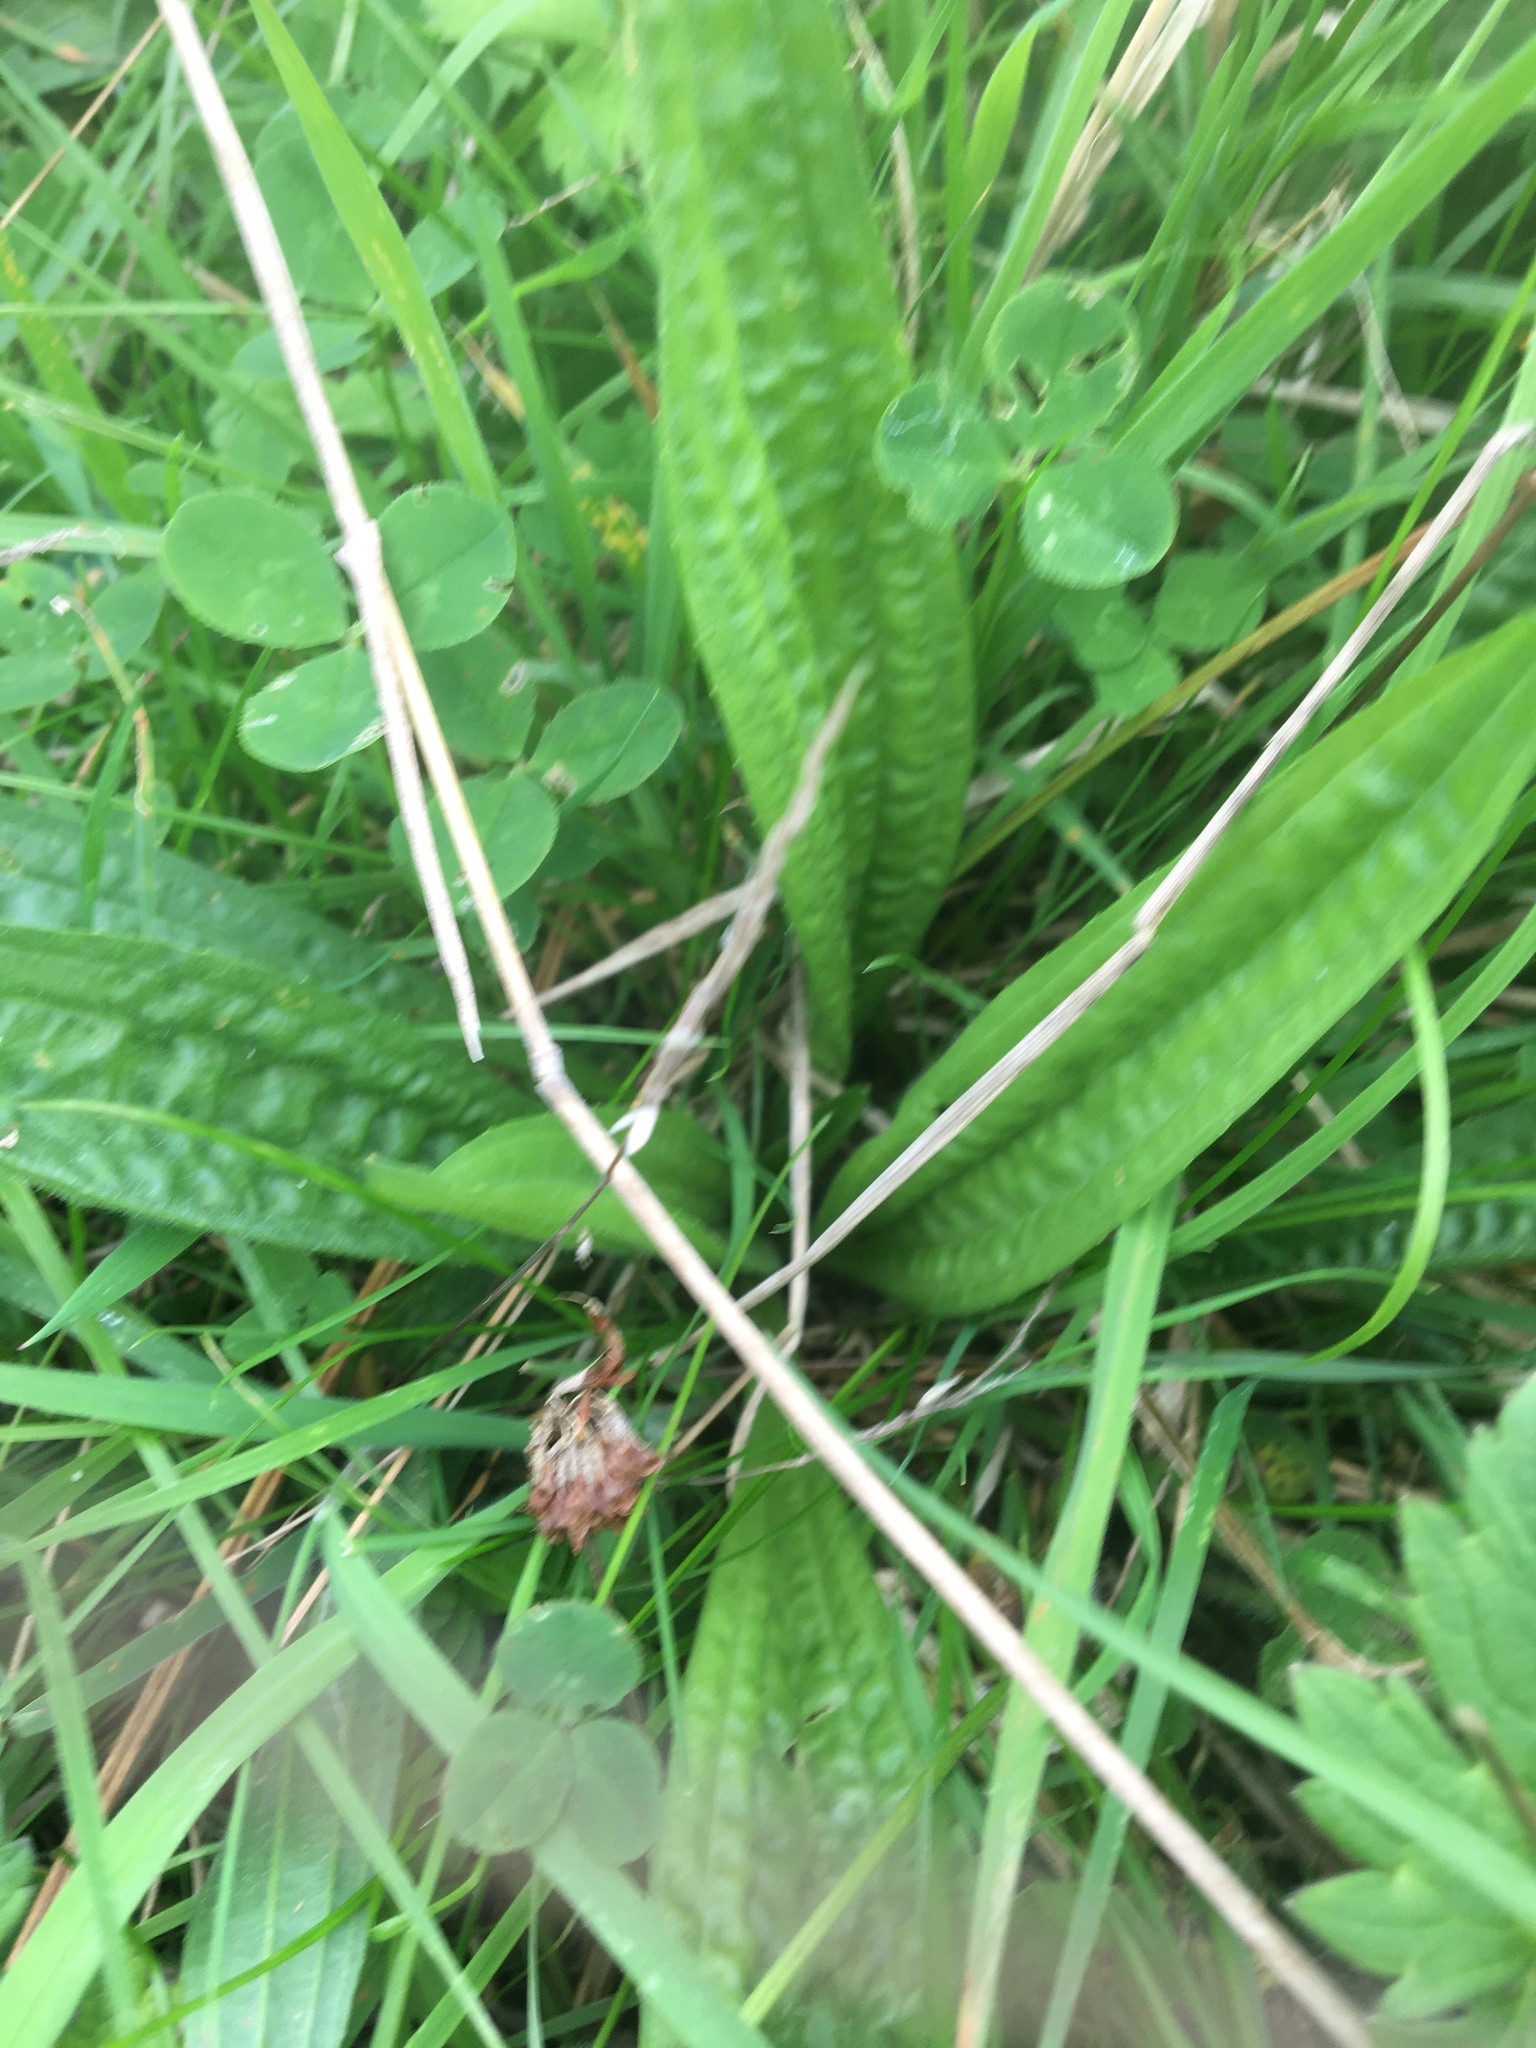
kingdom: Plantae
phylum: Tracheophyta
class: Magnoliopsida
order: Lamiales
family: Plantaginaceae
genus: Plantago
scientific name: Plantago lanceolata
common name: Ribwort plantain
